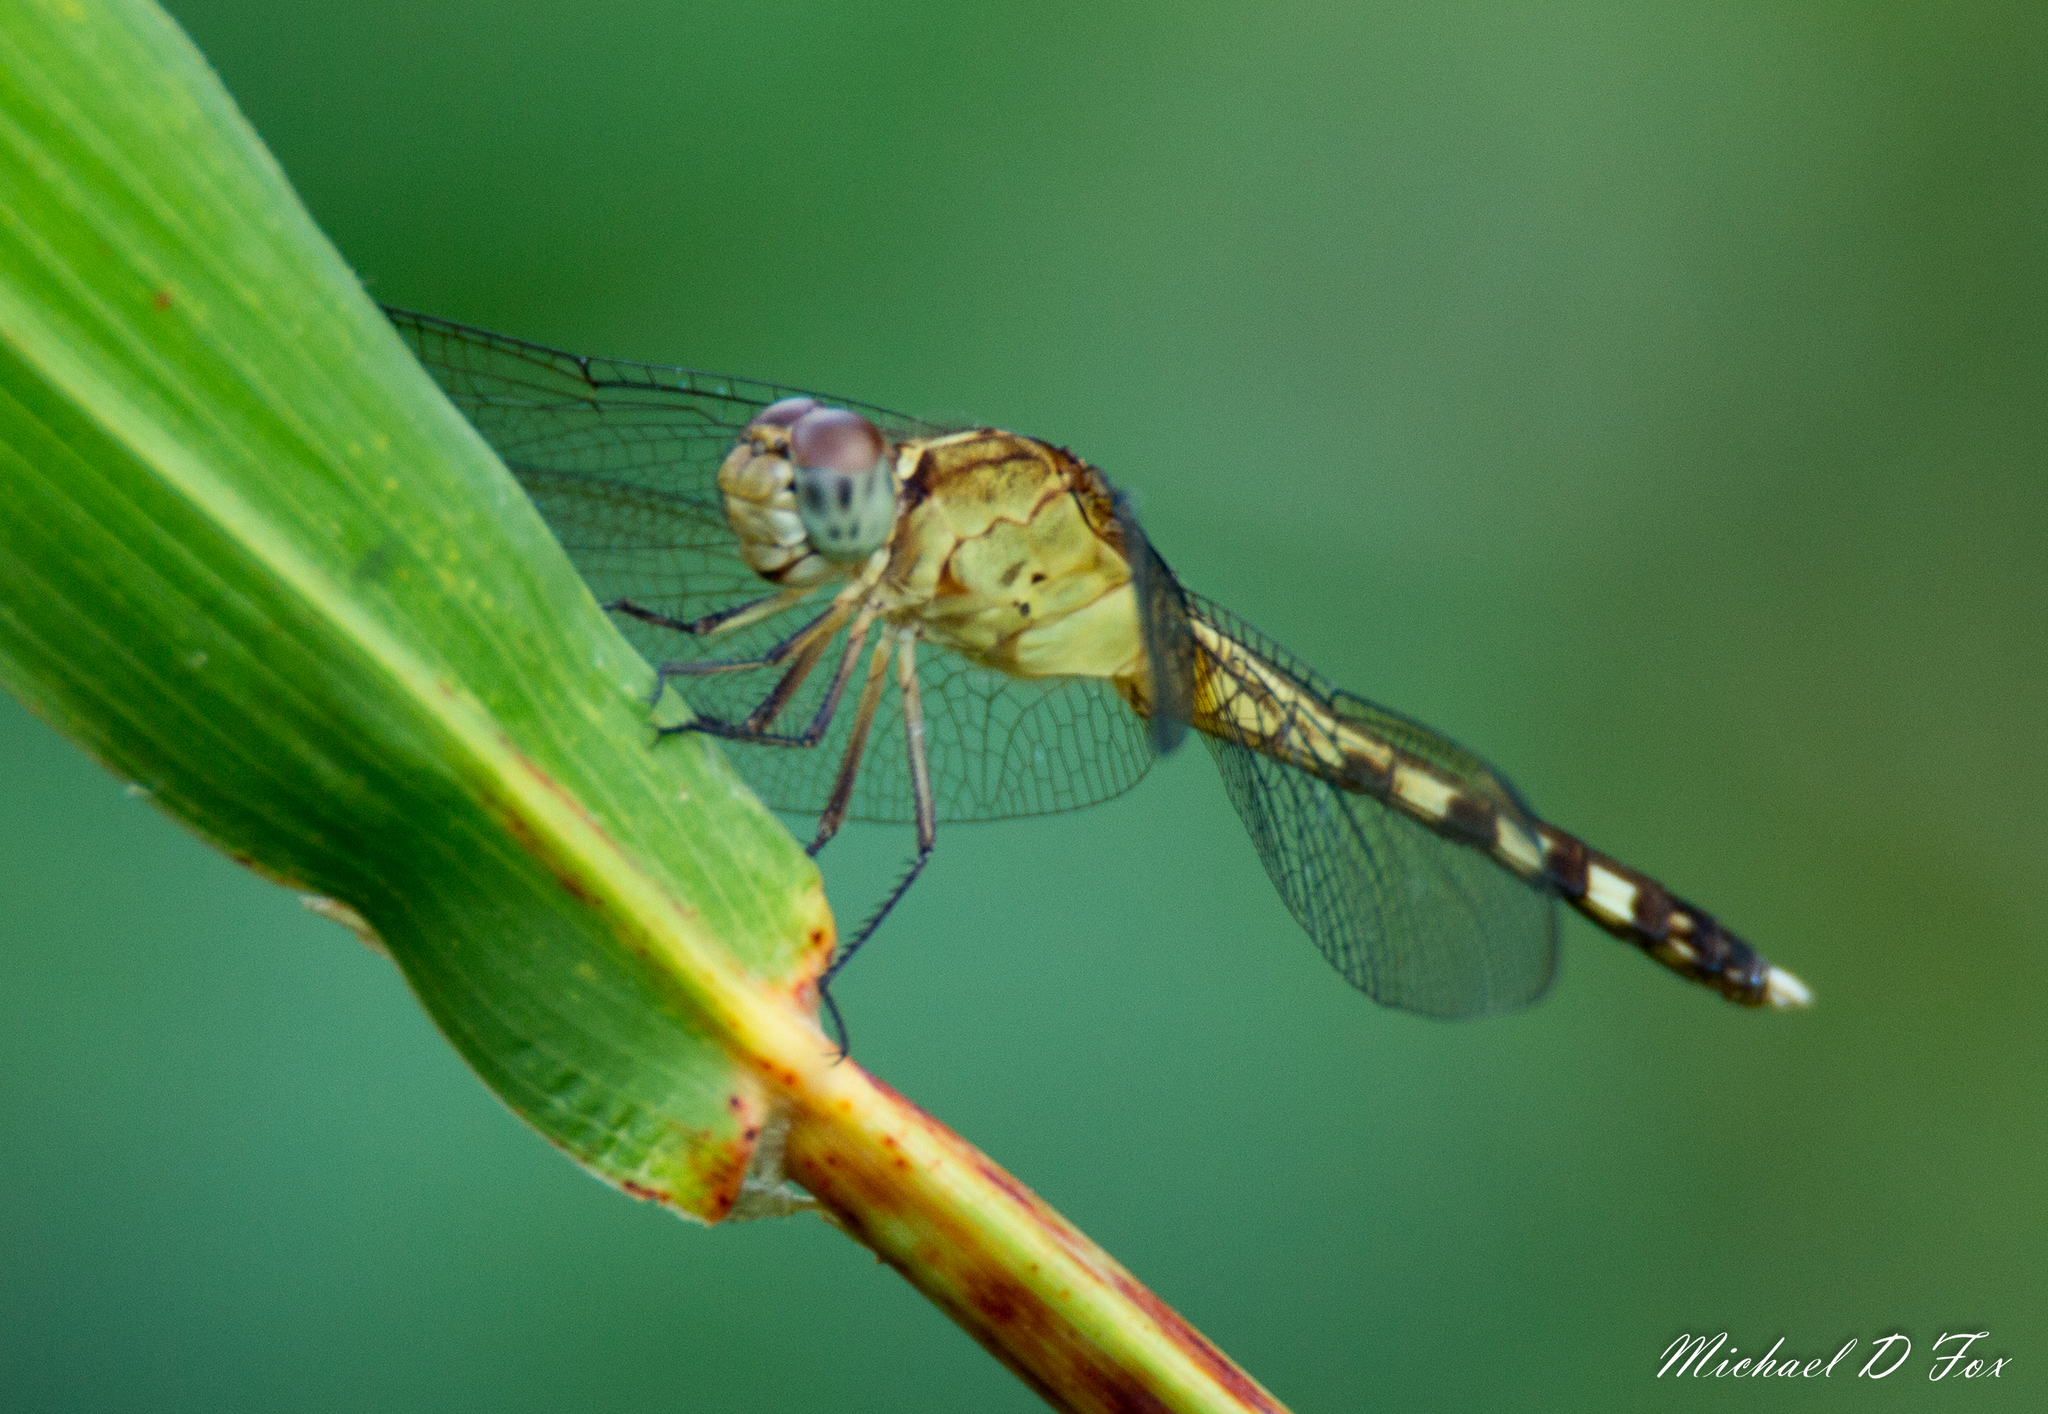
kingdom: Animalia
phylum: Arthropoda
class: Insecta
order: Odonata
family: Libellulidae
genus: Erythrodiplax
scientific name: Erythrodiplax umbrata
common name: Band-winged dragonlet
